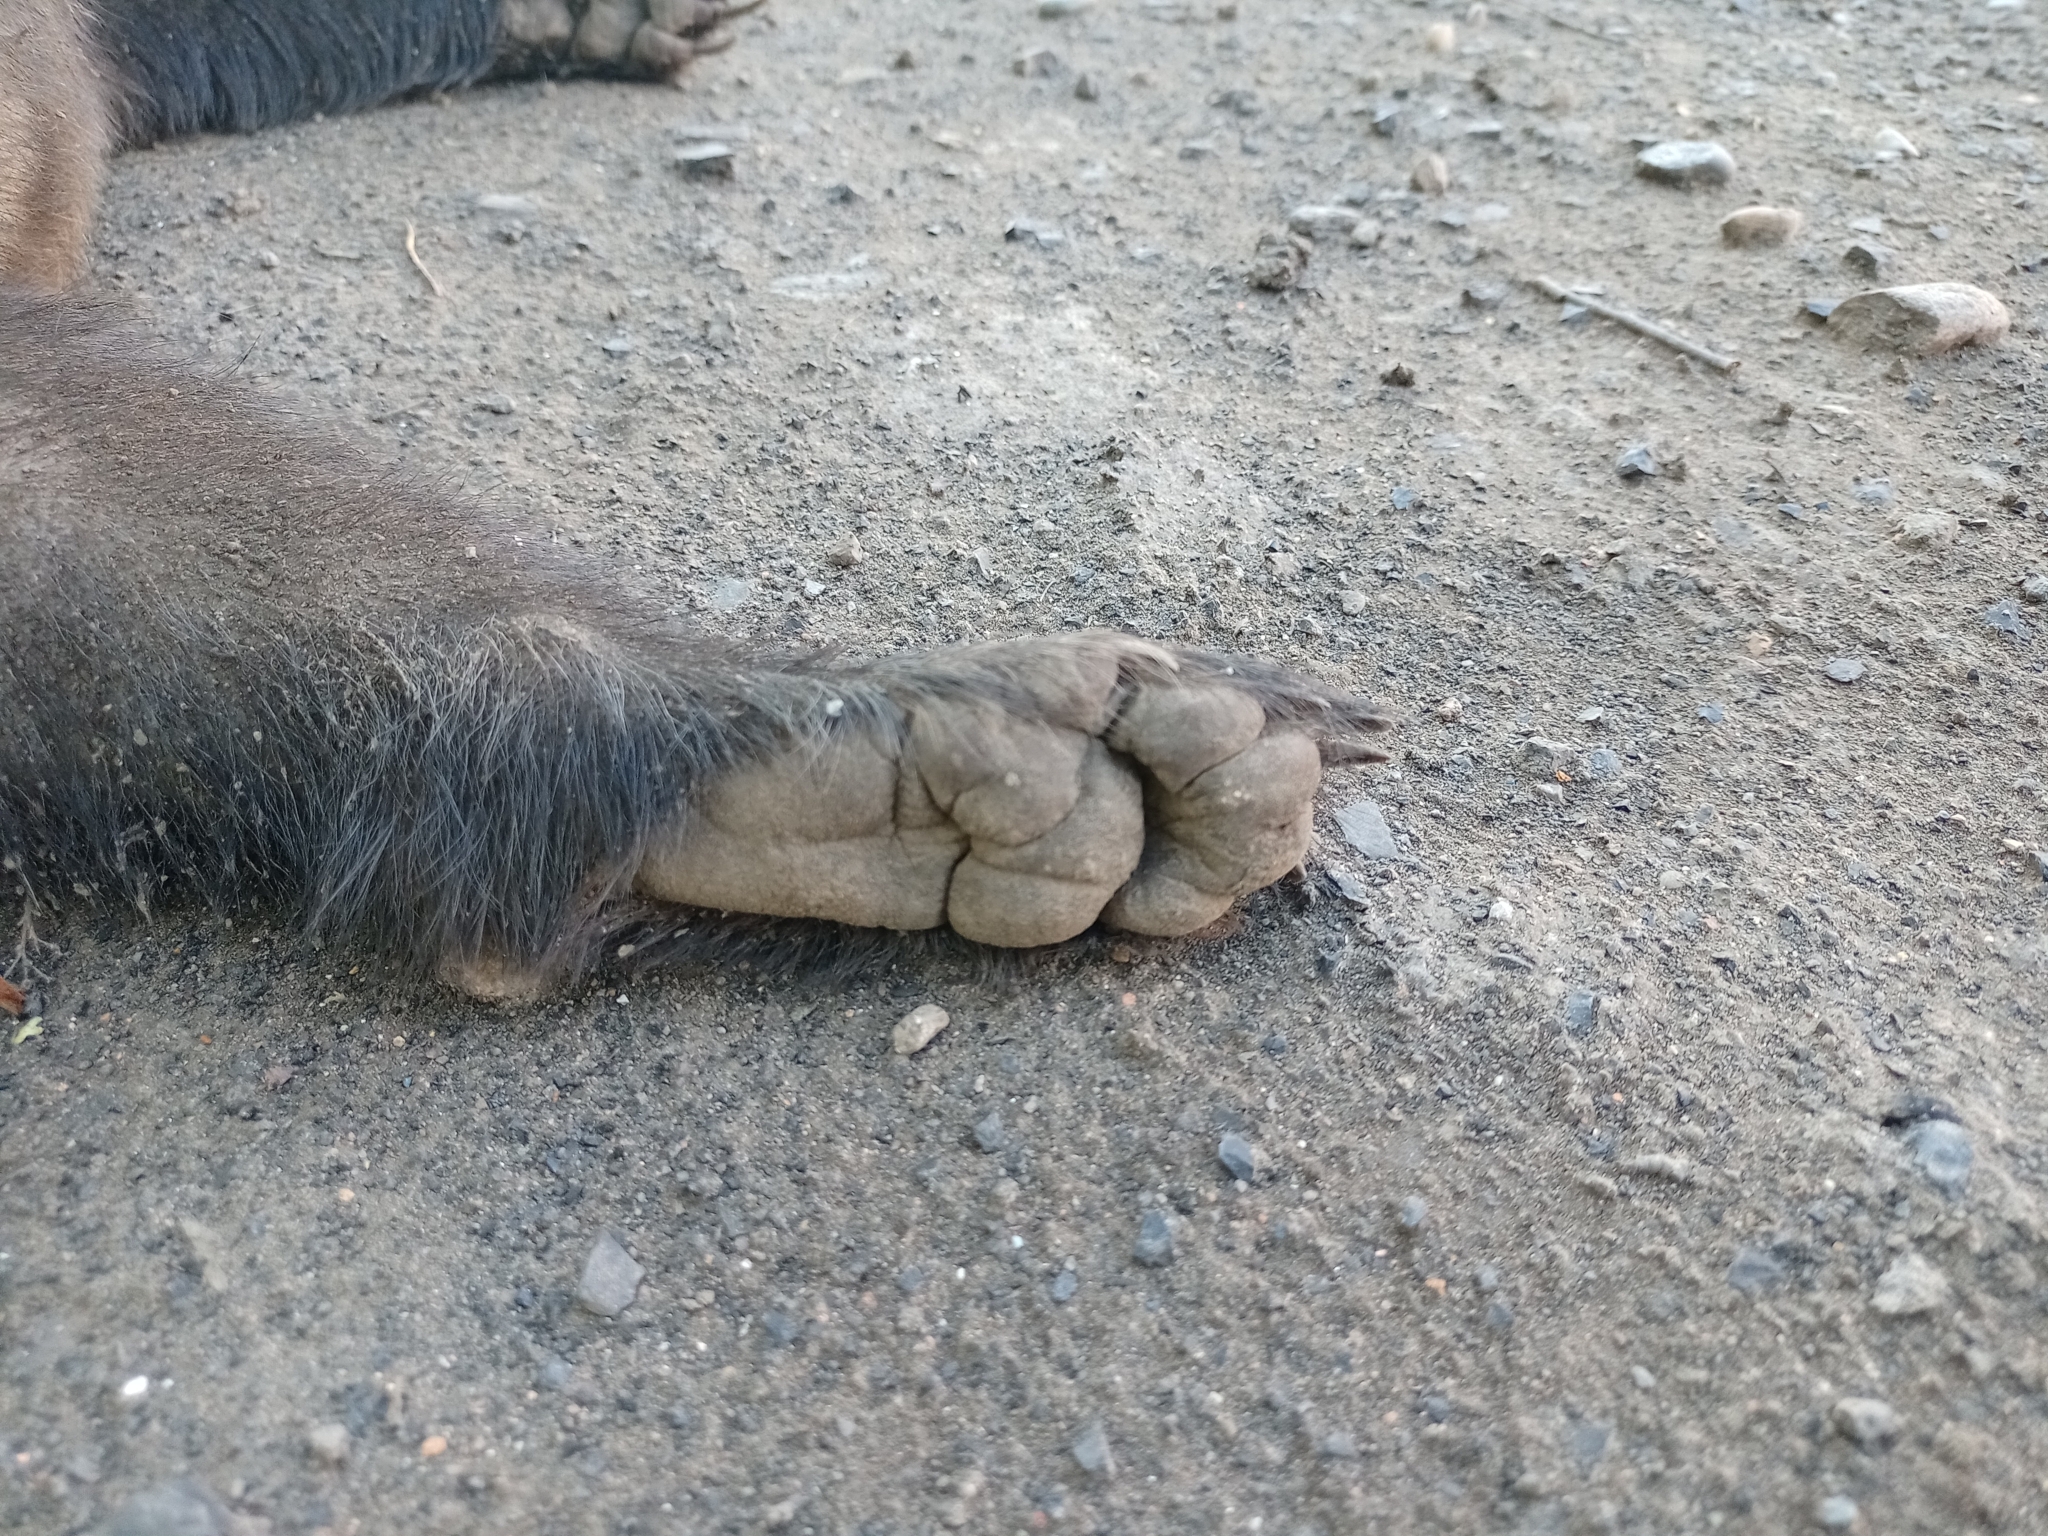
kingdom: Animalia
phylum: Chordata
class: Mammalia
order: Carnivora
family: Mustelidae
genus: Meles
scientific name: Meles leucurus
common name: Asian badger
